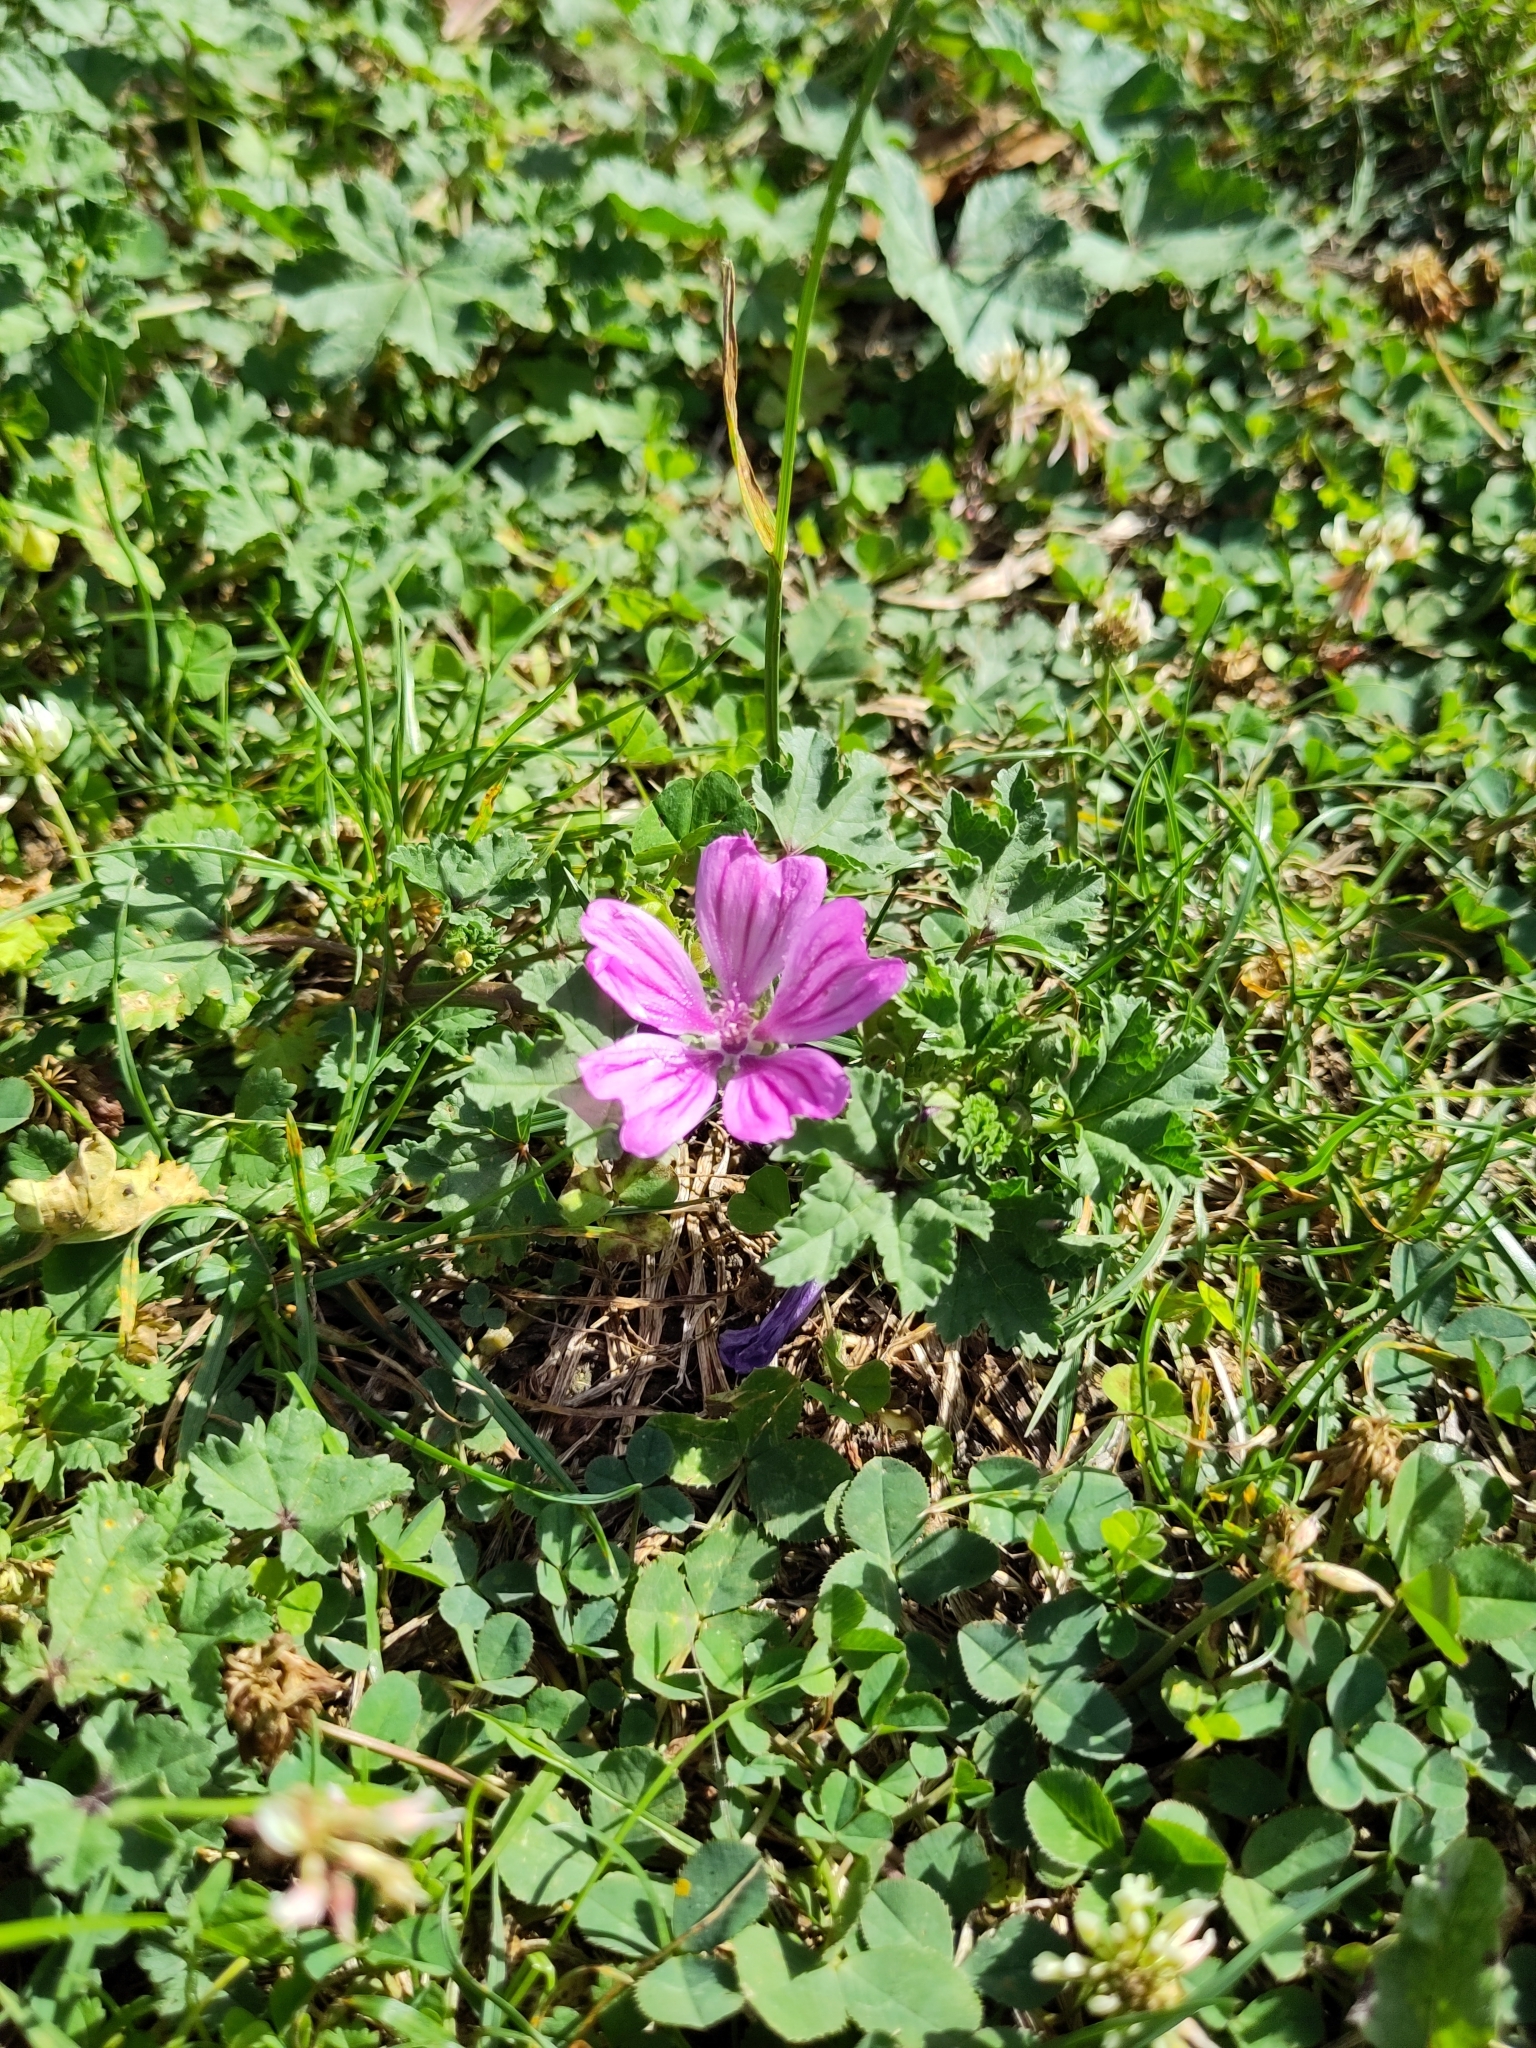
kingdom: Plantae
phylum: Tracheophyta
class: Magnoliopsida
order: Malvales
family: Malvaceae
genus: Malva
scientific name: Malva sylvestris
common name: Common mallow
